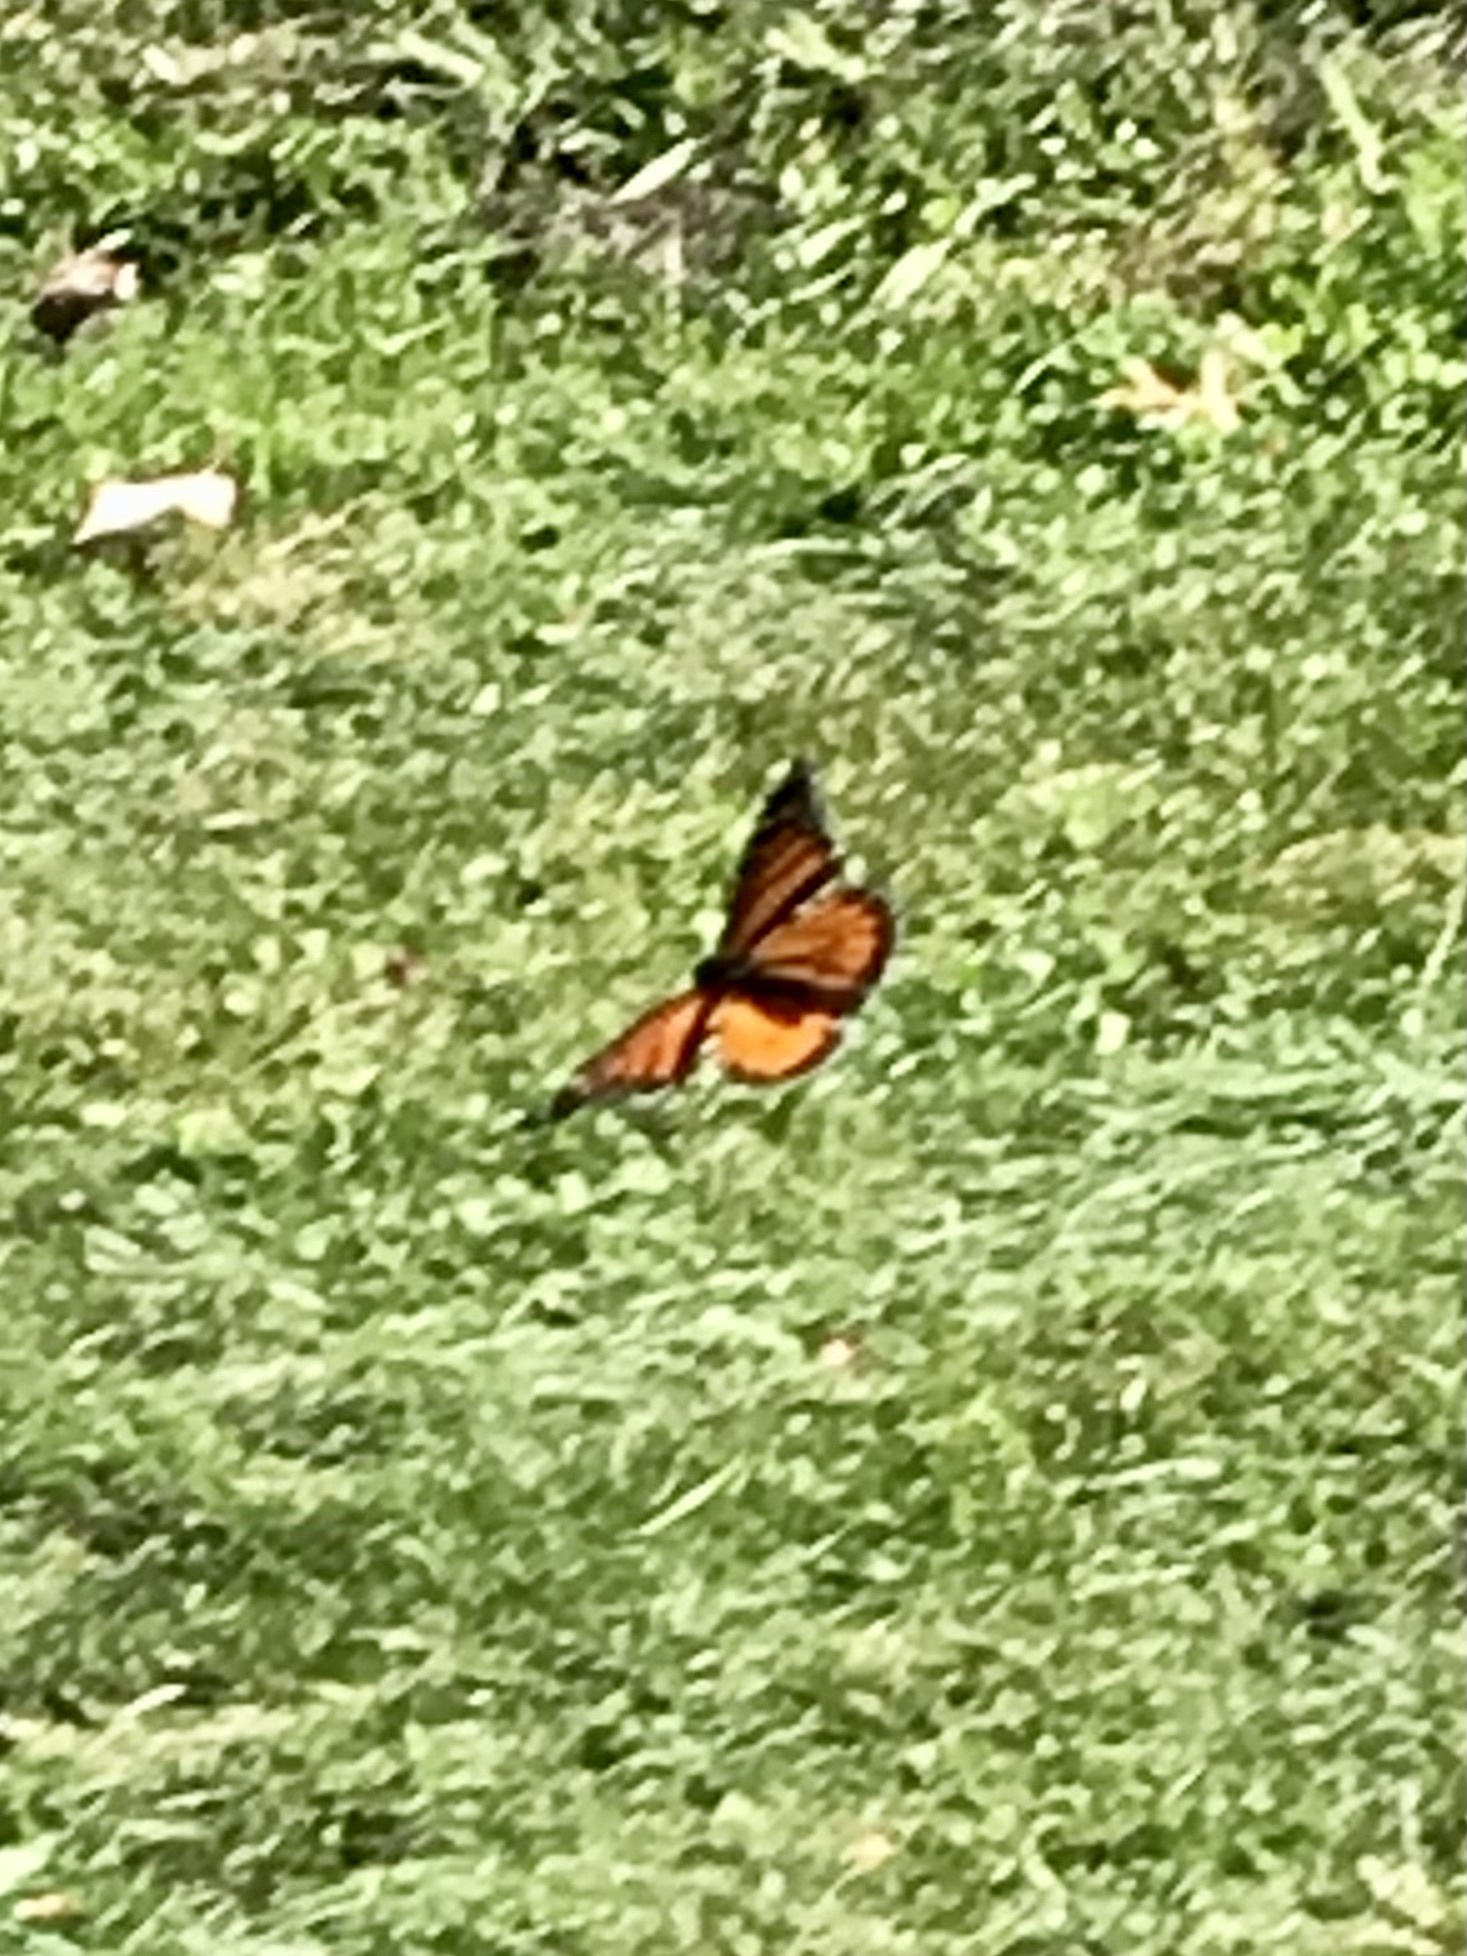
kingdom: Animalia
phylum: Arthropoda
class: Insecta
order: Lepidoptera
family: Nymphalidae
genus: Danaus
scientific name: Danaus plexippus
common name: Monarch
